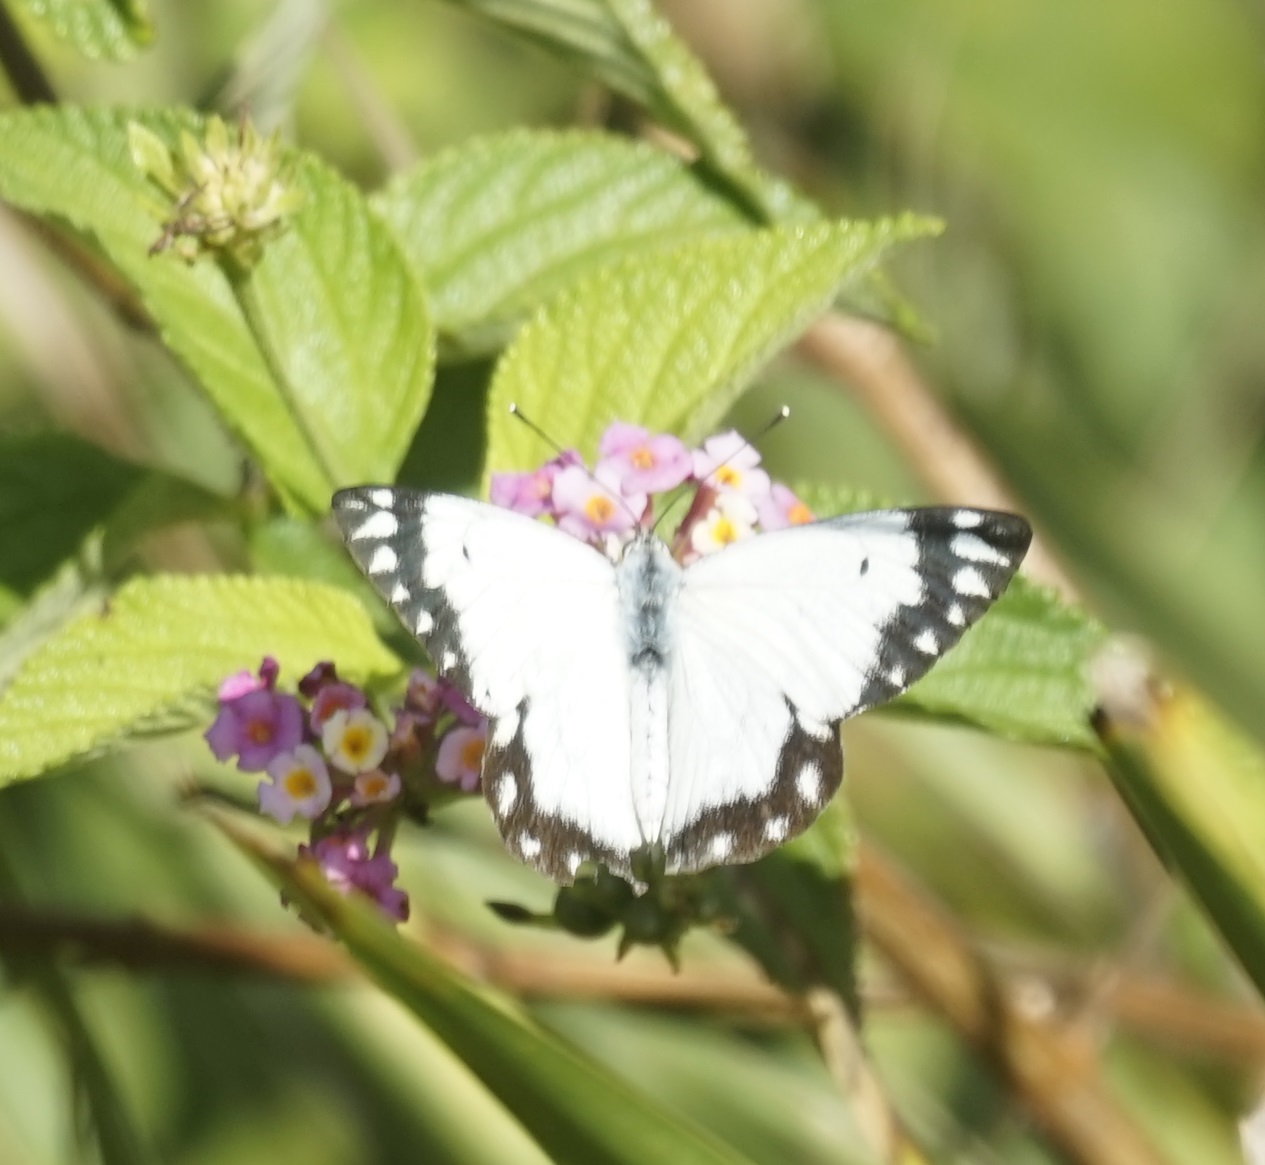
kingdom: Animalia
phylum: Arthropoda
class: Insecta
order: Lepidoptera
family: Pieridae
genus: Belenois
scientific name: Belenois java
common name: Caper white
